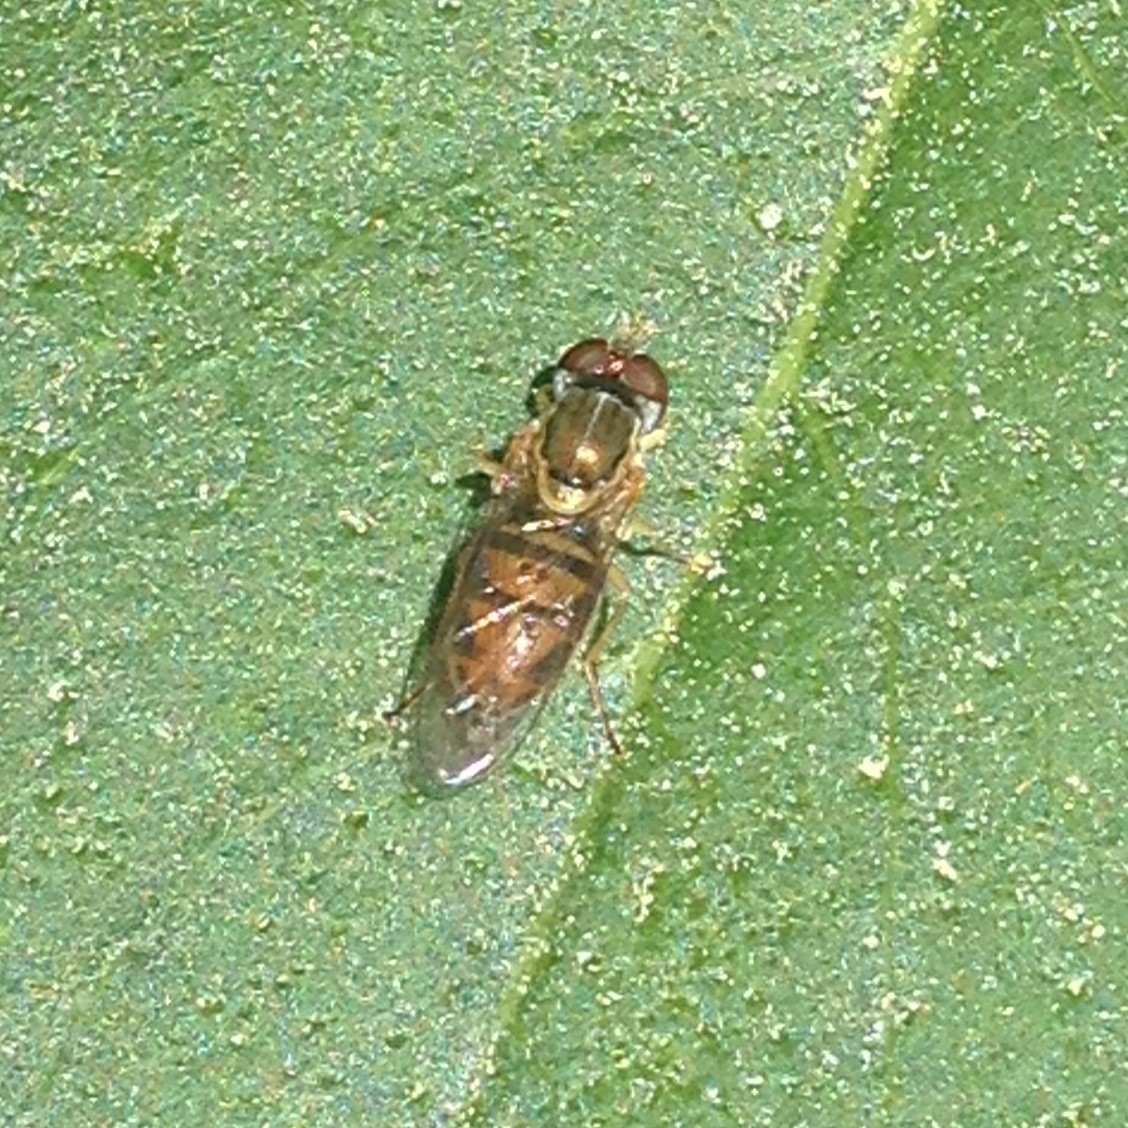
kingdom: Animalia
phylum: Arthropoda
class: Insecta
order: Diptera
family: Syrphidae
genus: Toxomerus
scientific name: Toxomerus marginatus
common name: Syrphid fly
